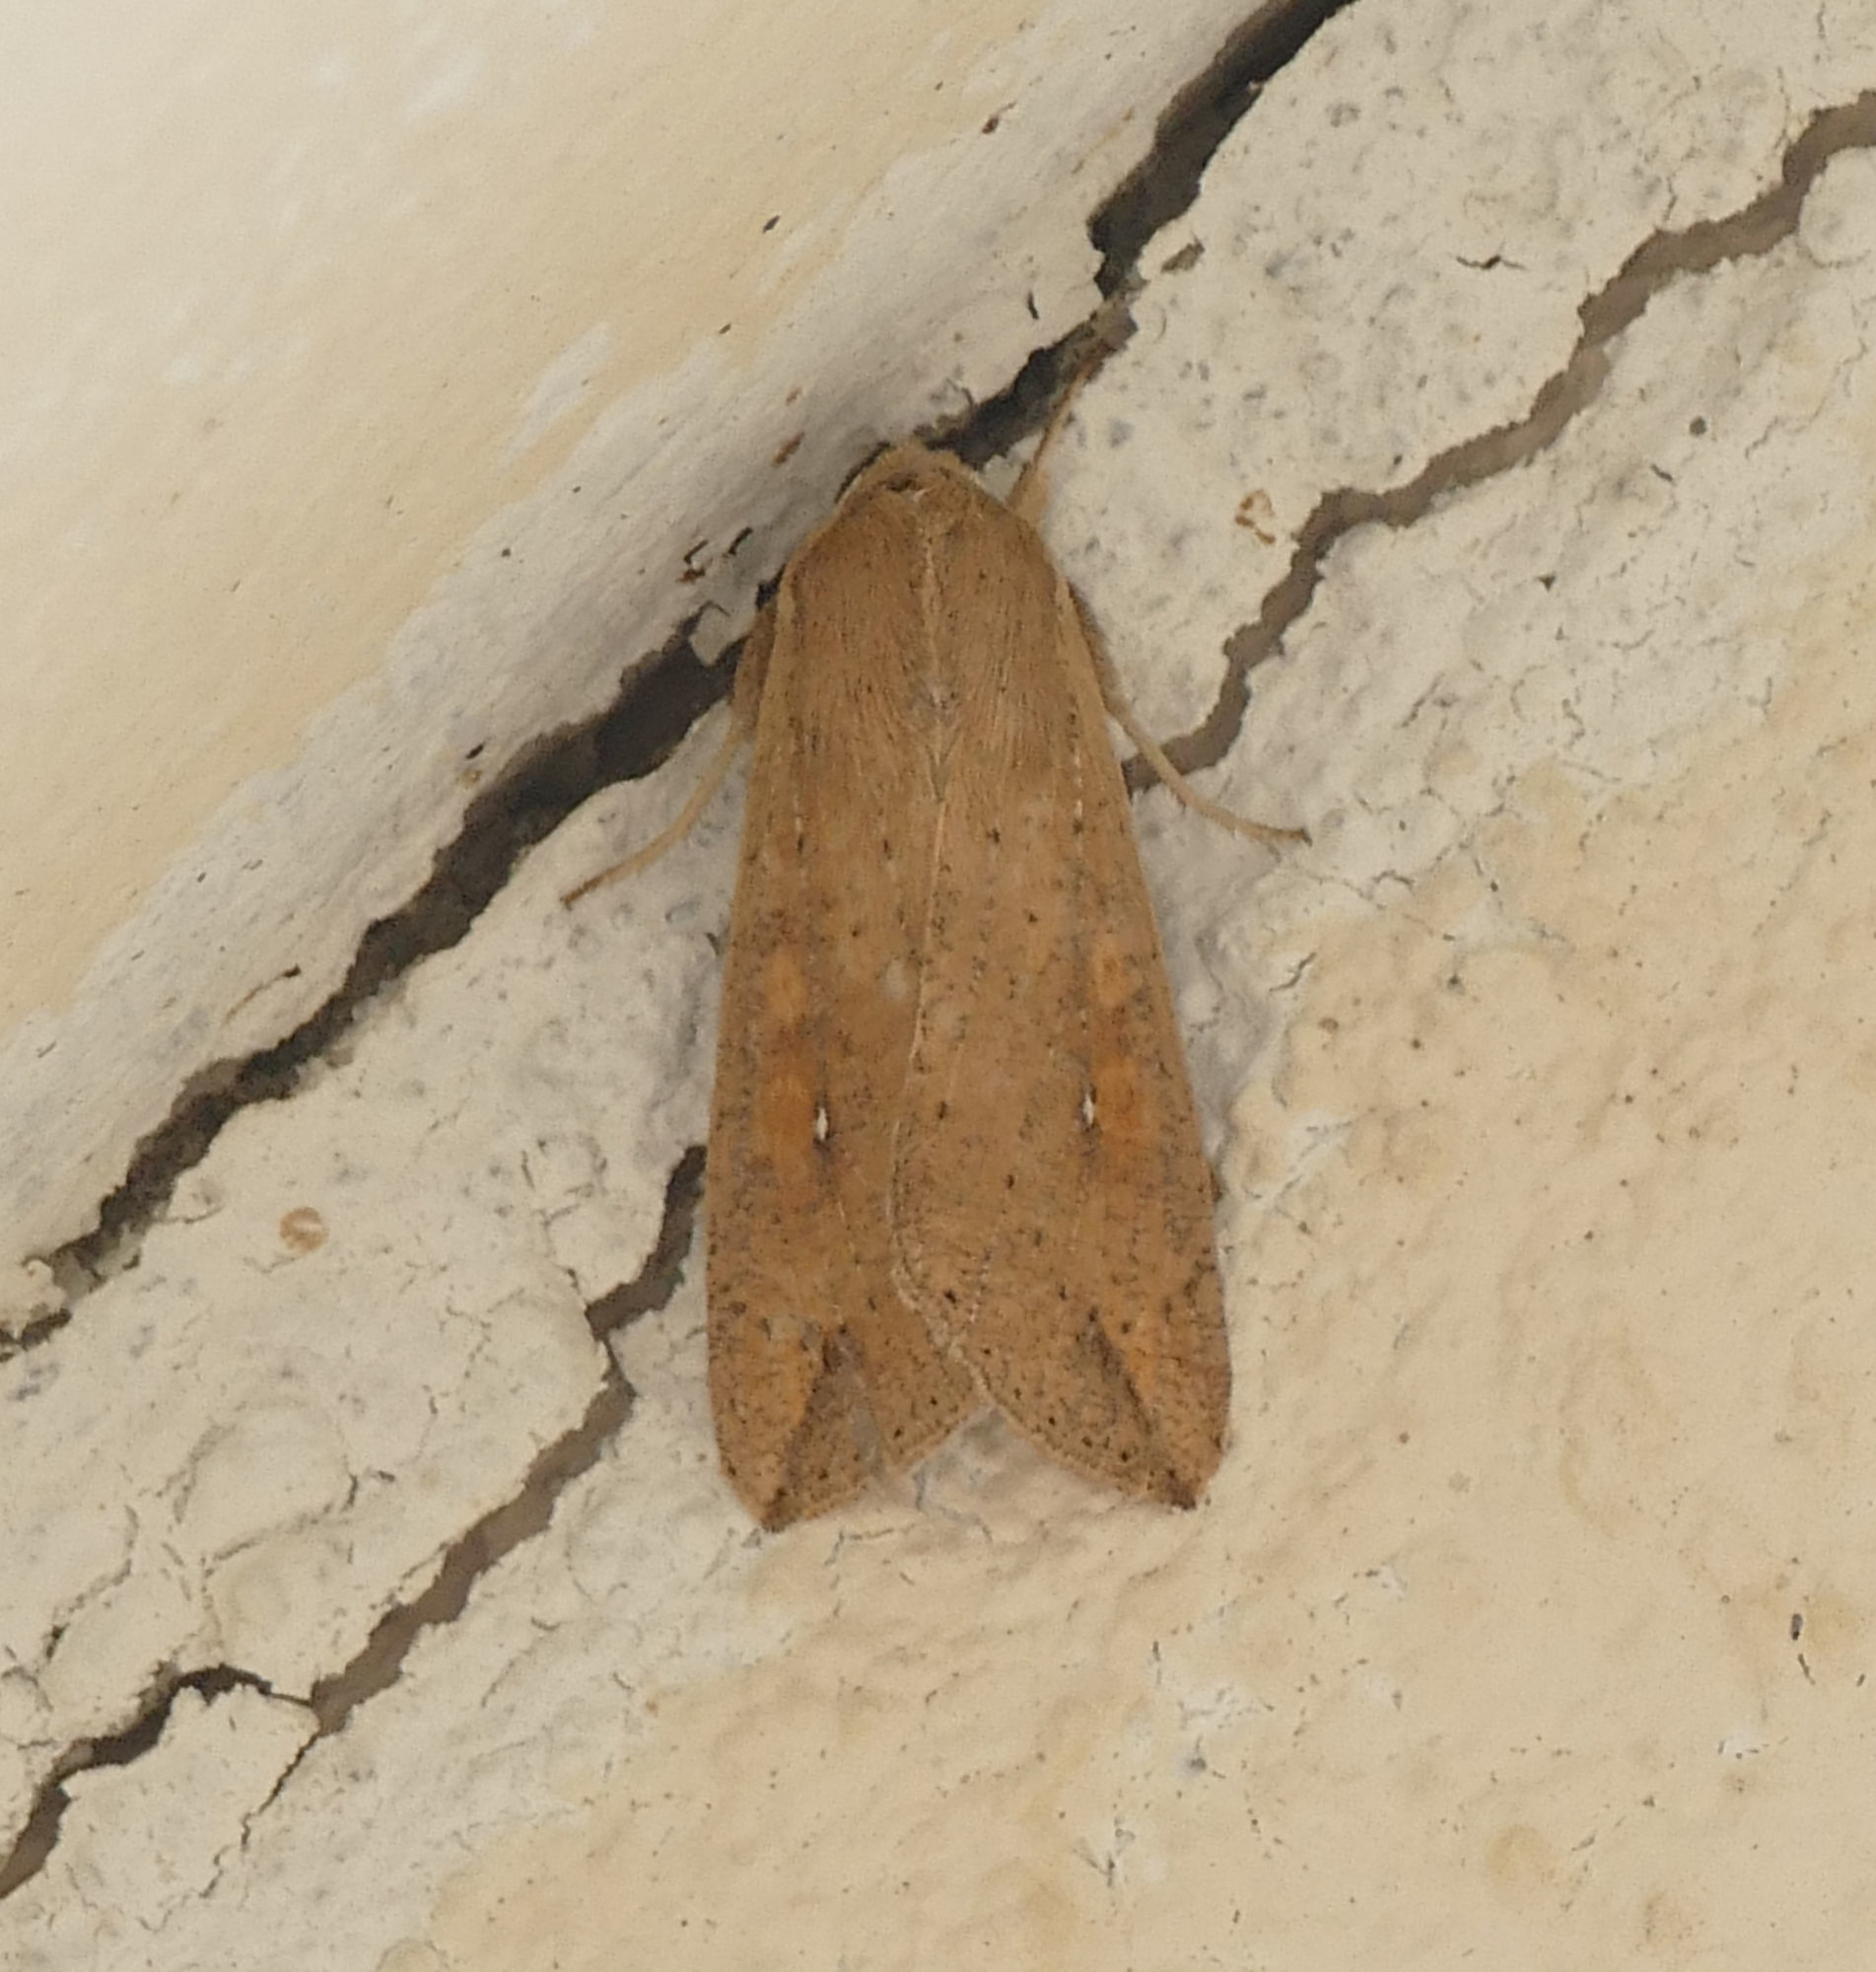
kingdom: Animalia
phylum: Arthropoda
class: Insecta
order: Lepidoptera
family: Noctuidae
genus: Mythimna
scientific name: Mythimna unipuncta
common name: White-speck
